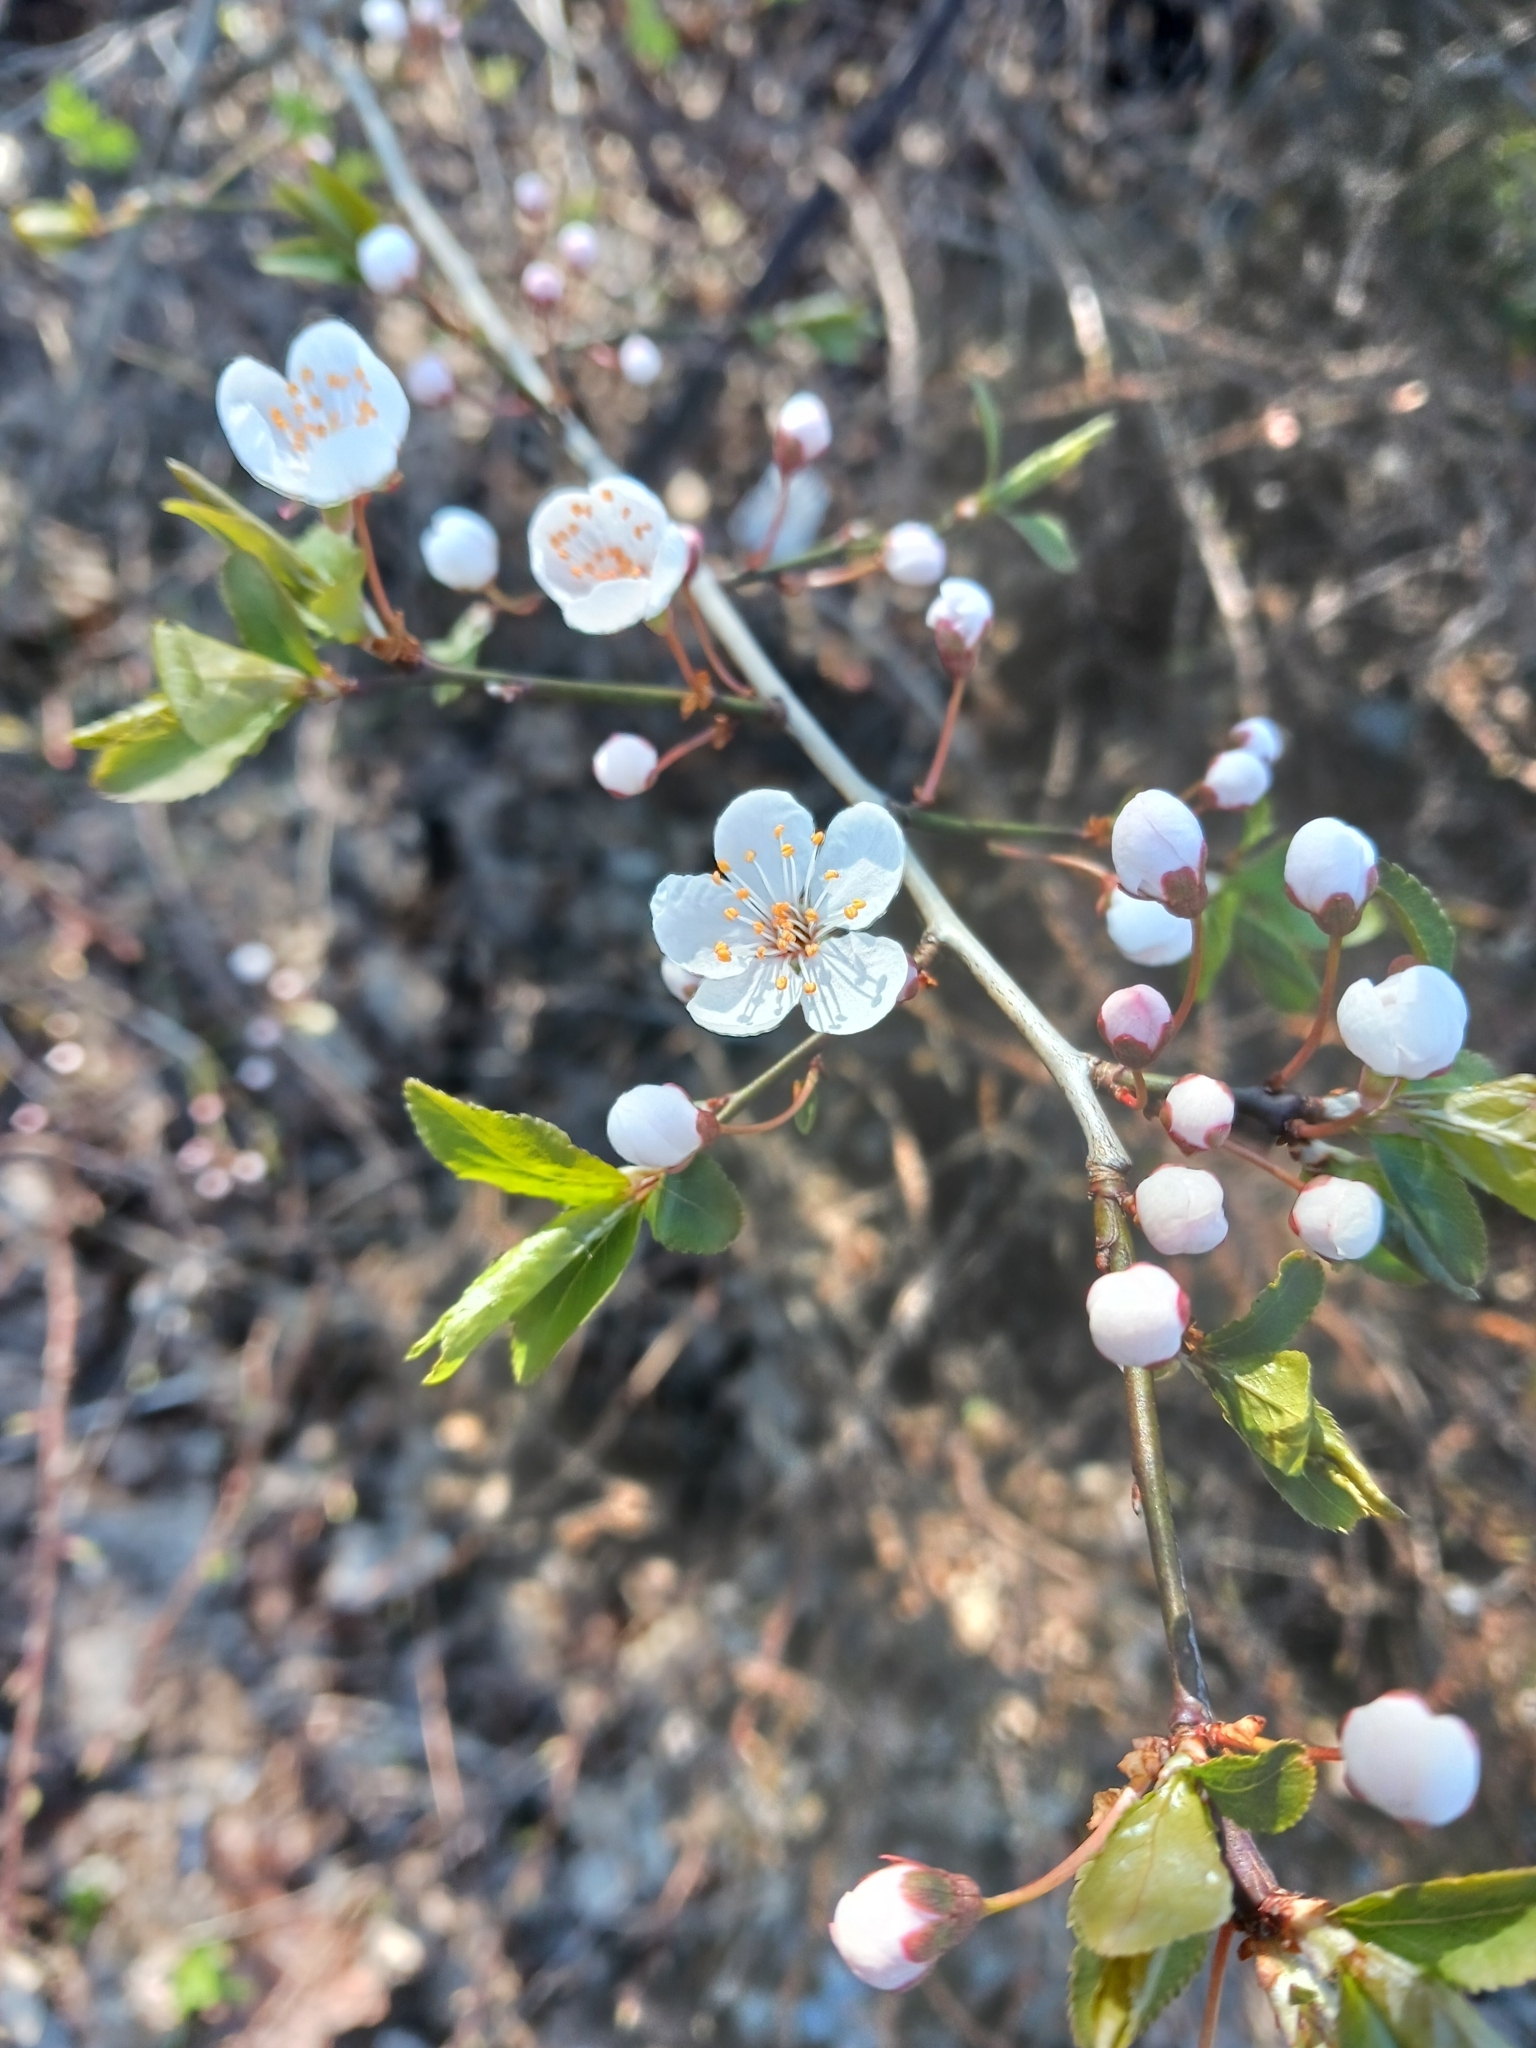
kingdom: Plantae
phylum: Tracheophyta
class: Magnoliopsida
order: Rosales
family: Rosaceae
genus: Prunus
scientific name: Prunus cerasifera
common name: Cherry plum
